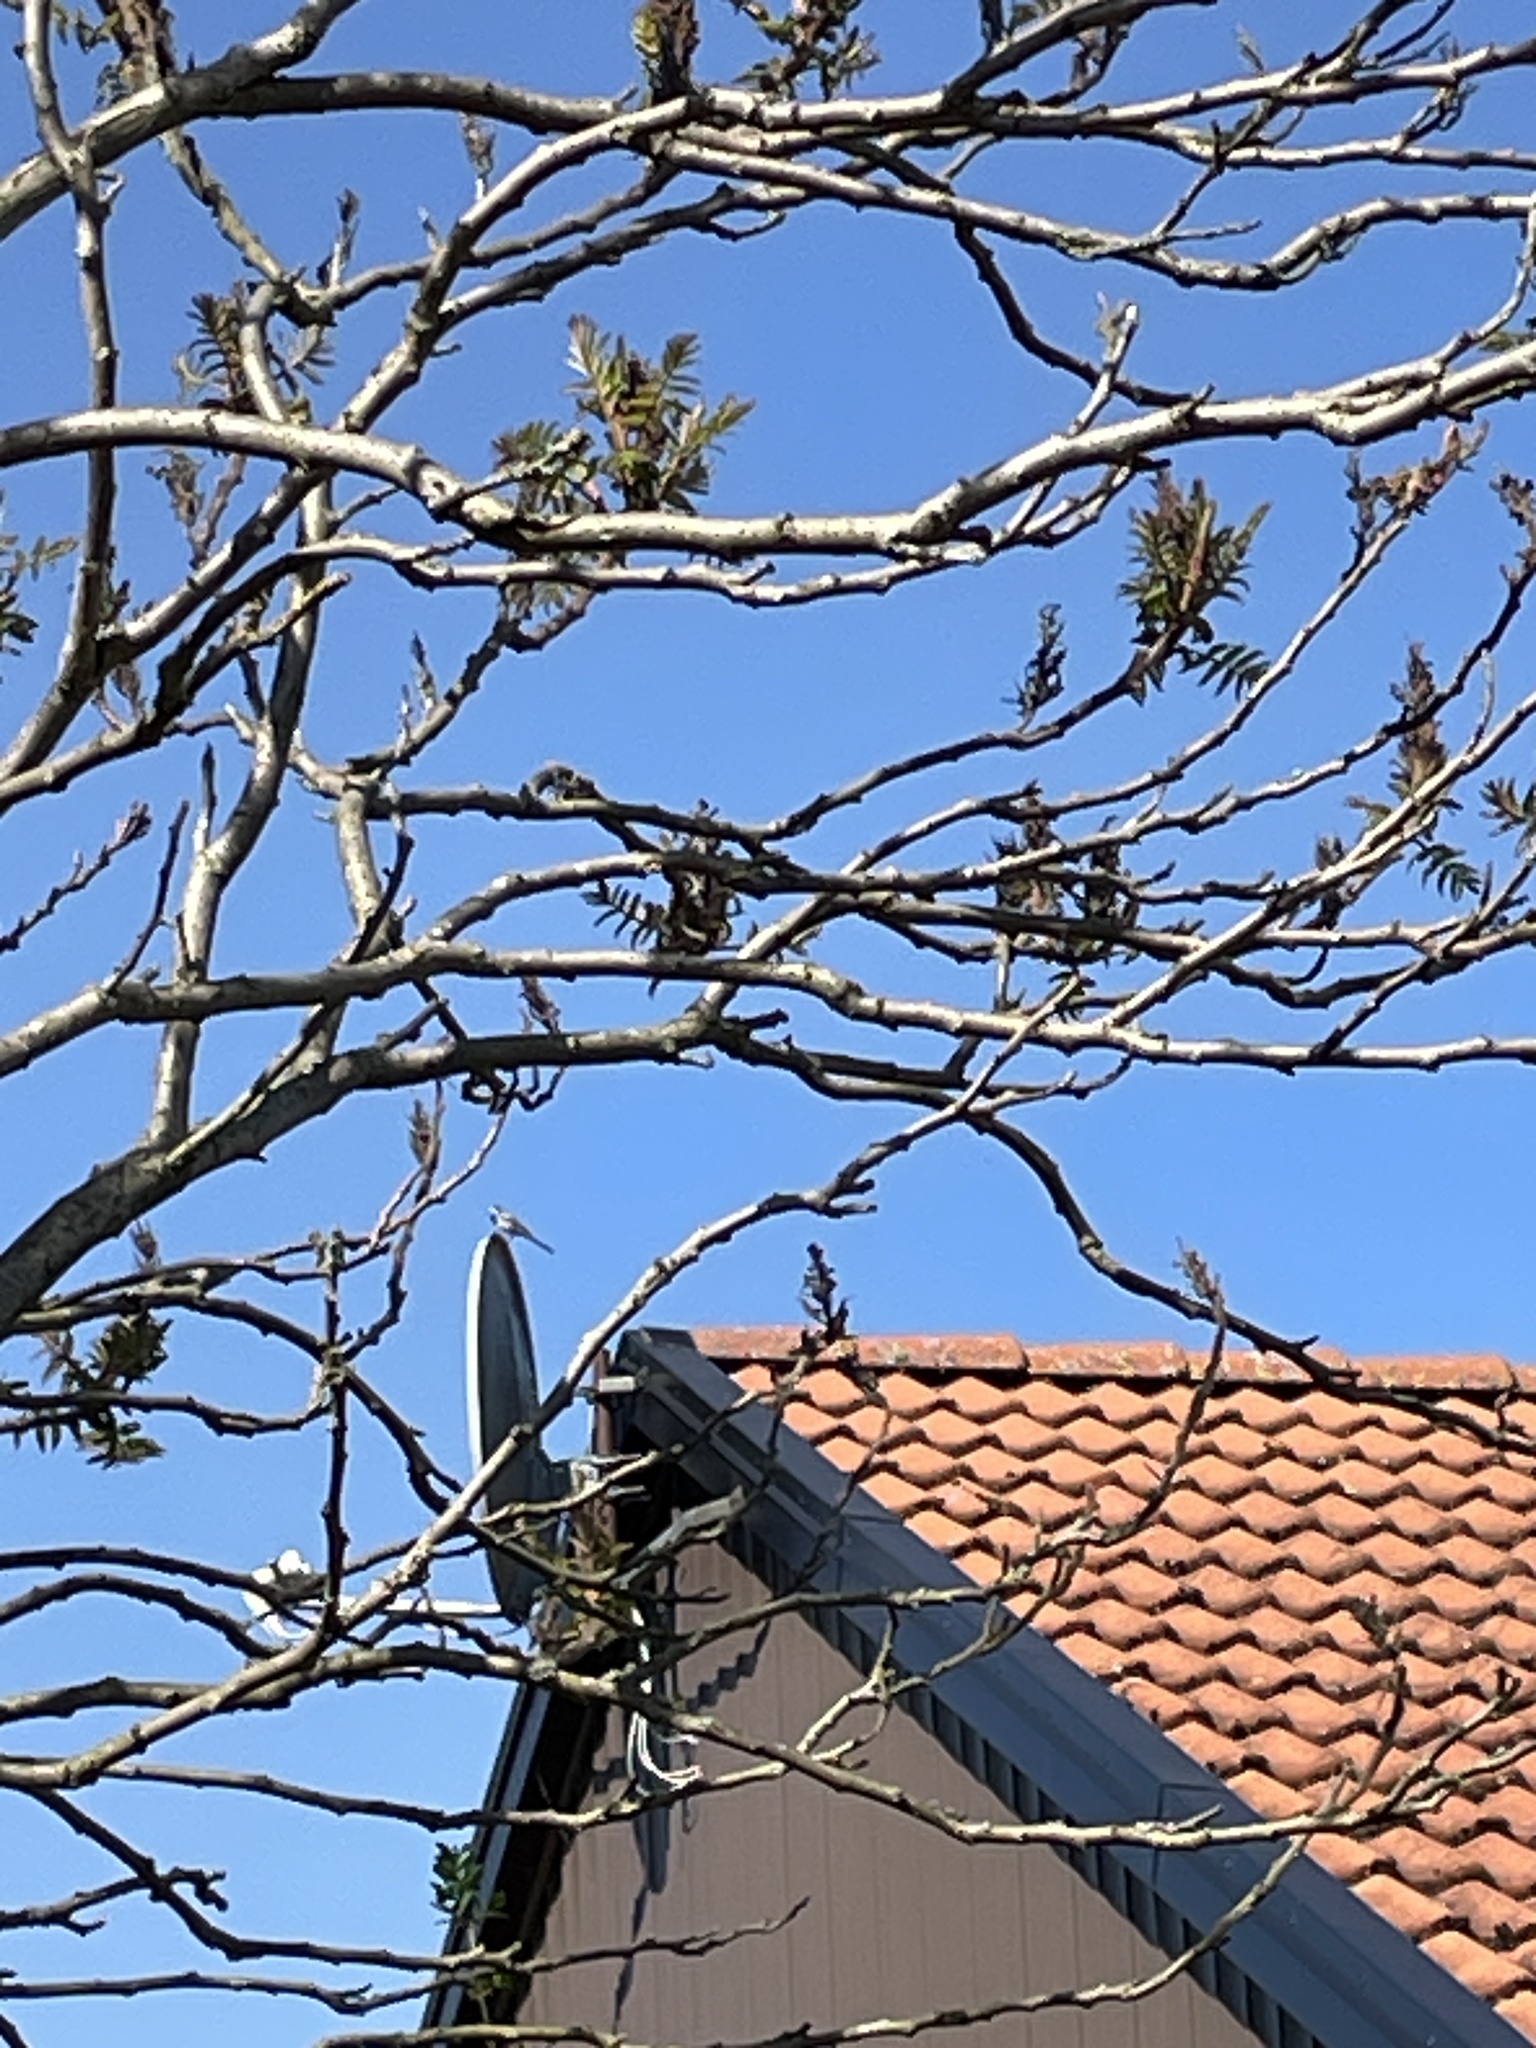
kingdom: Animalia
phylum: Chordata
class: Aves
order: Passeriformes
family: Motacillidae
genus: Motacilla
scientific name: Motacilla alba
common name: White wagtail
